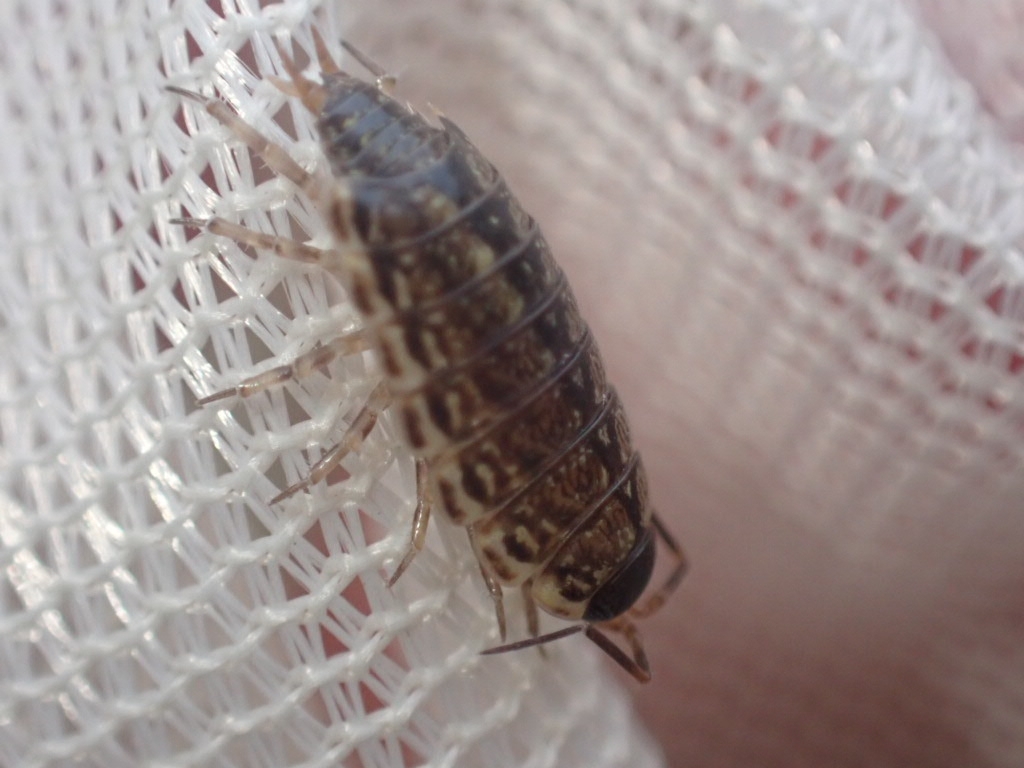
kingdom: Animalia
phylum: Arthropoda
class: Malacostraca
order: Isopoda
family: Philosciidae
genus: Philoscia
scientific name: Philoscia muscorum
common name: Common striped woodlouse
